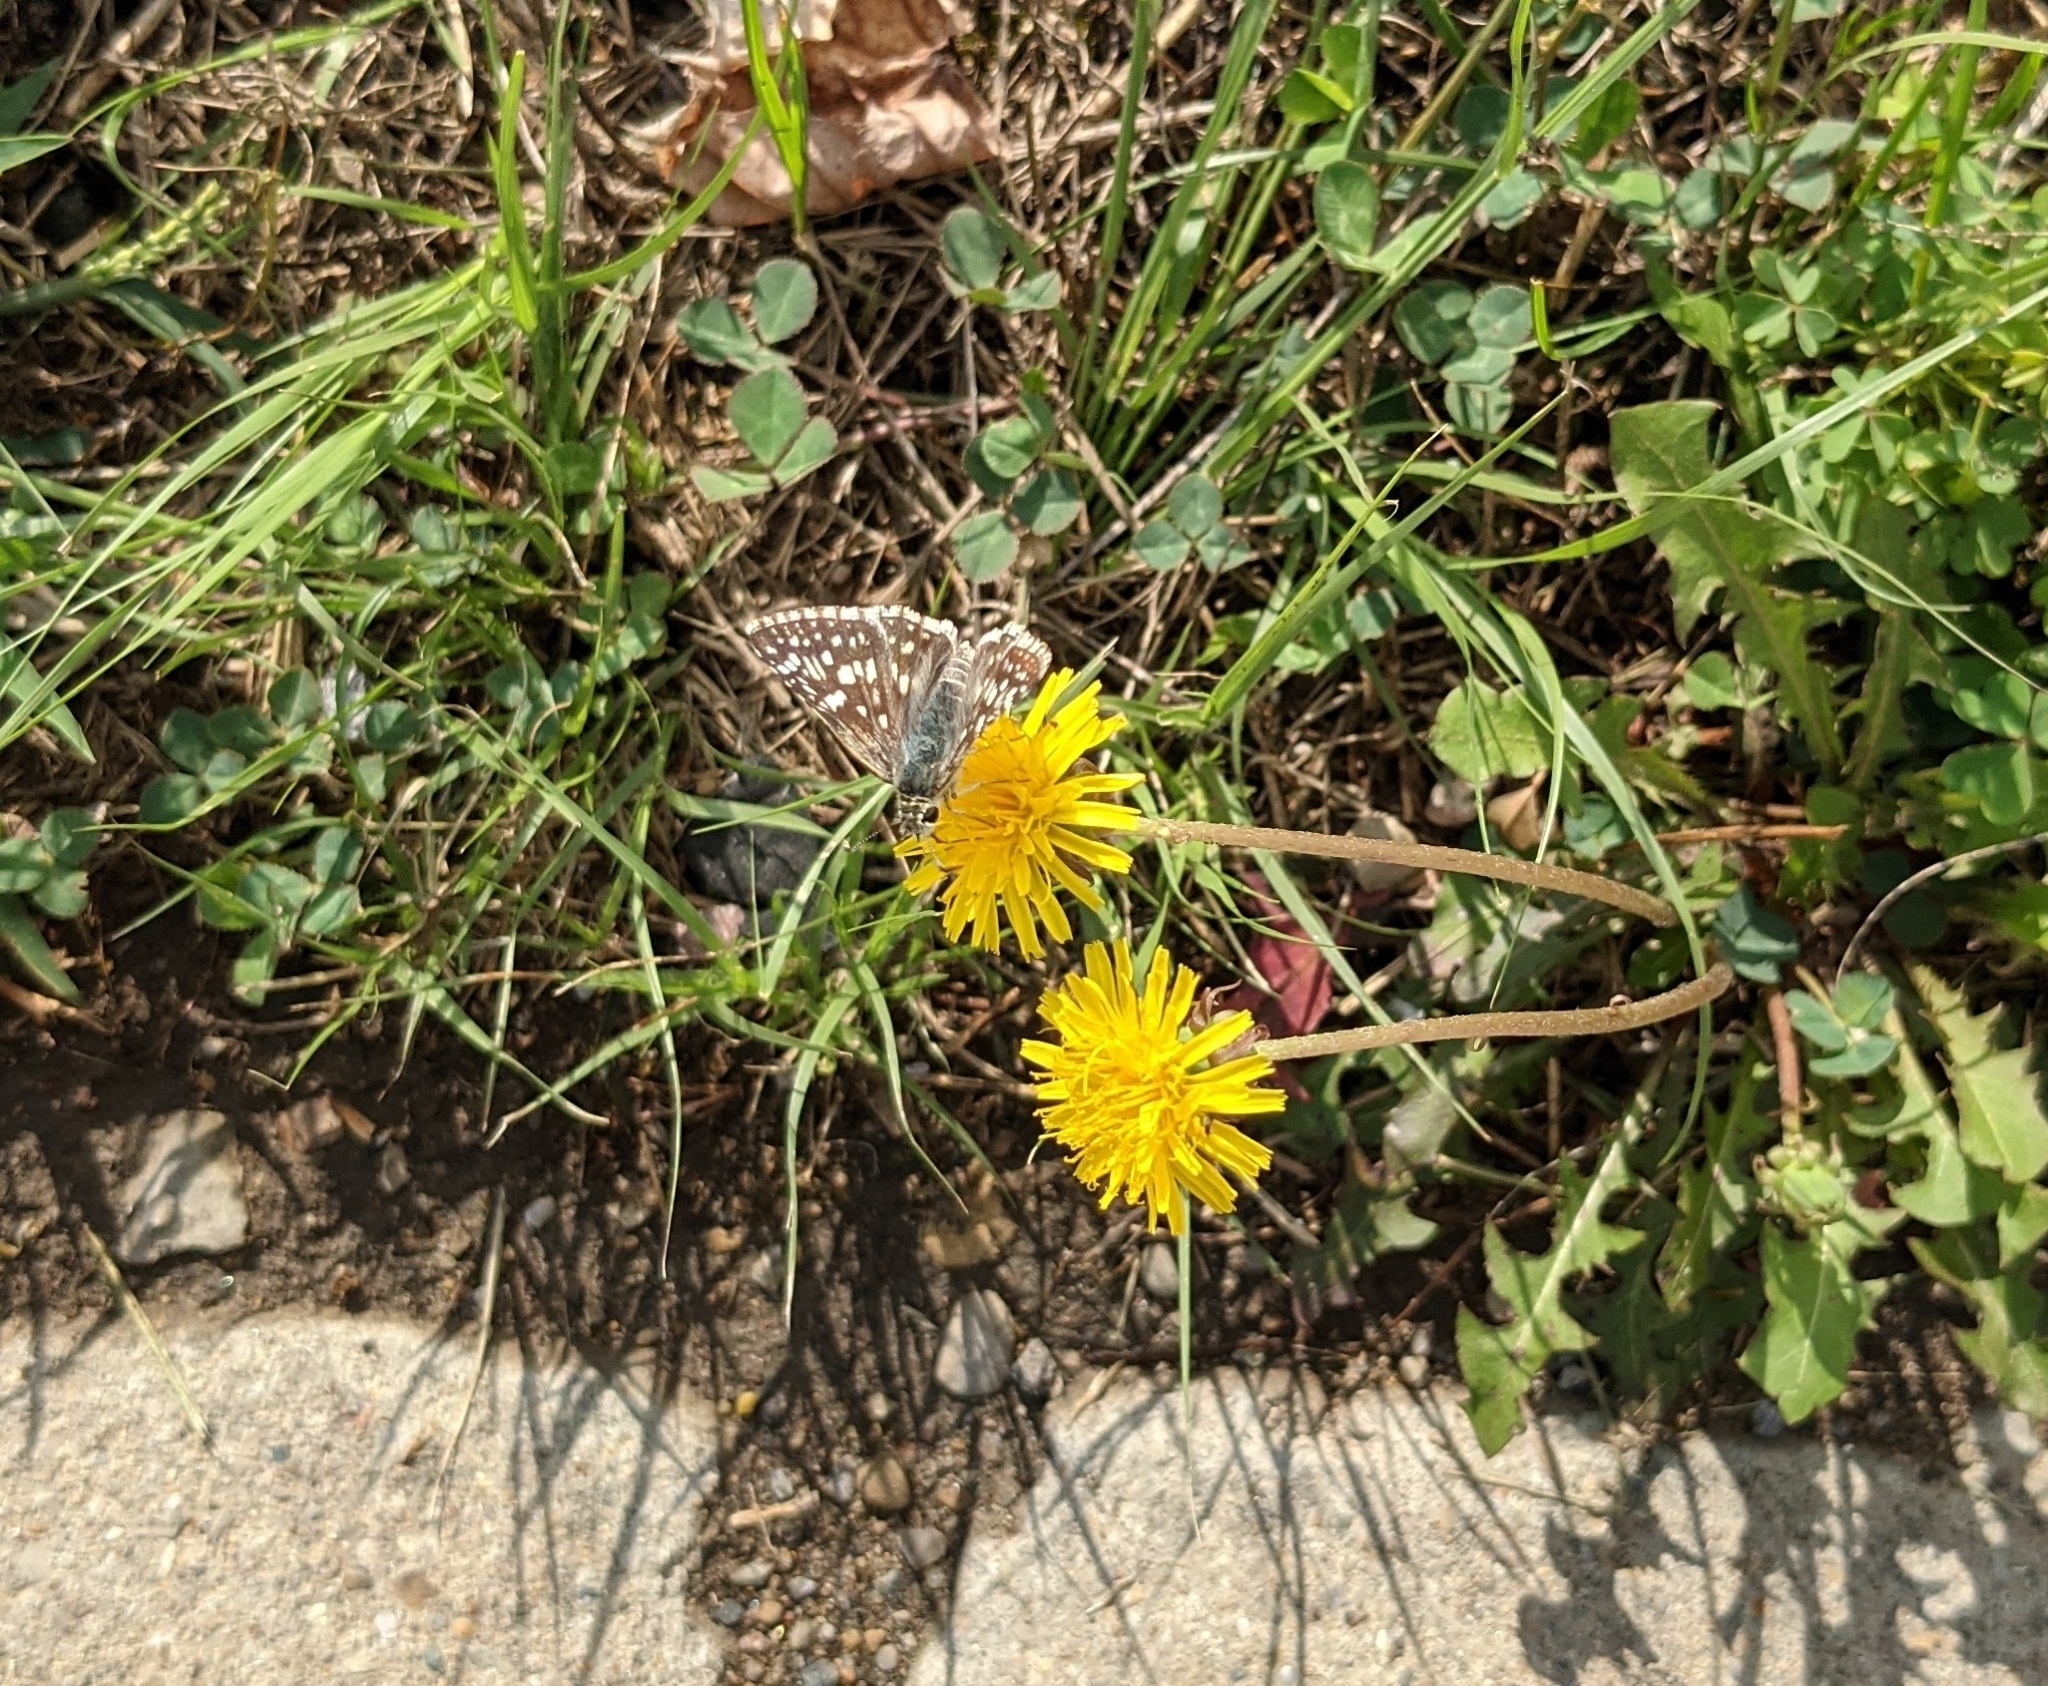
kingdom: Animalia
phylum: Arthropoda
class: Insecta
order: Lepidoptera
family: Hesperiidae
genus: Burnsius
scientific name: Burnsius communis
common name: Common checkered-skipper
